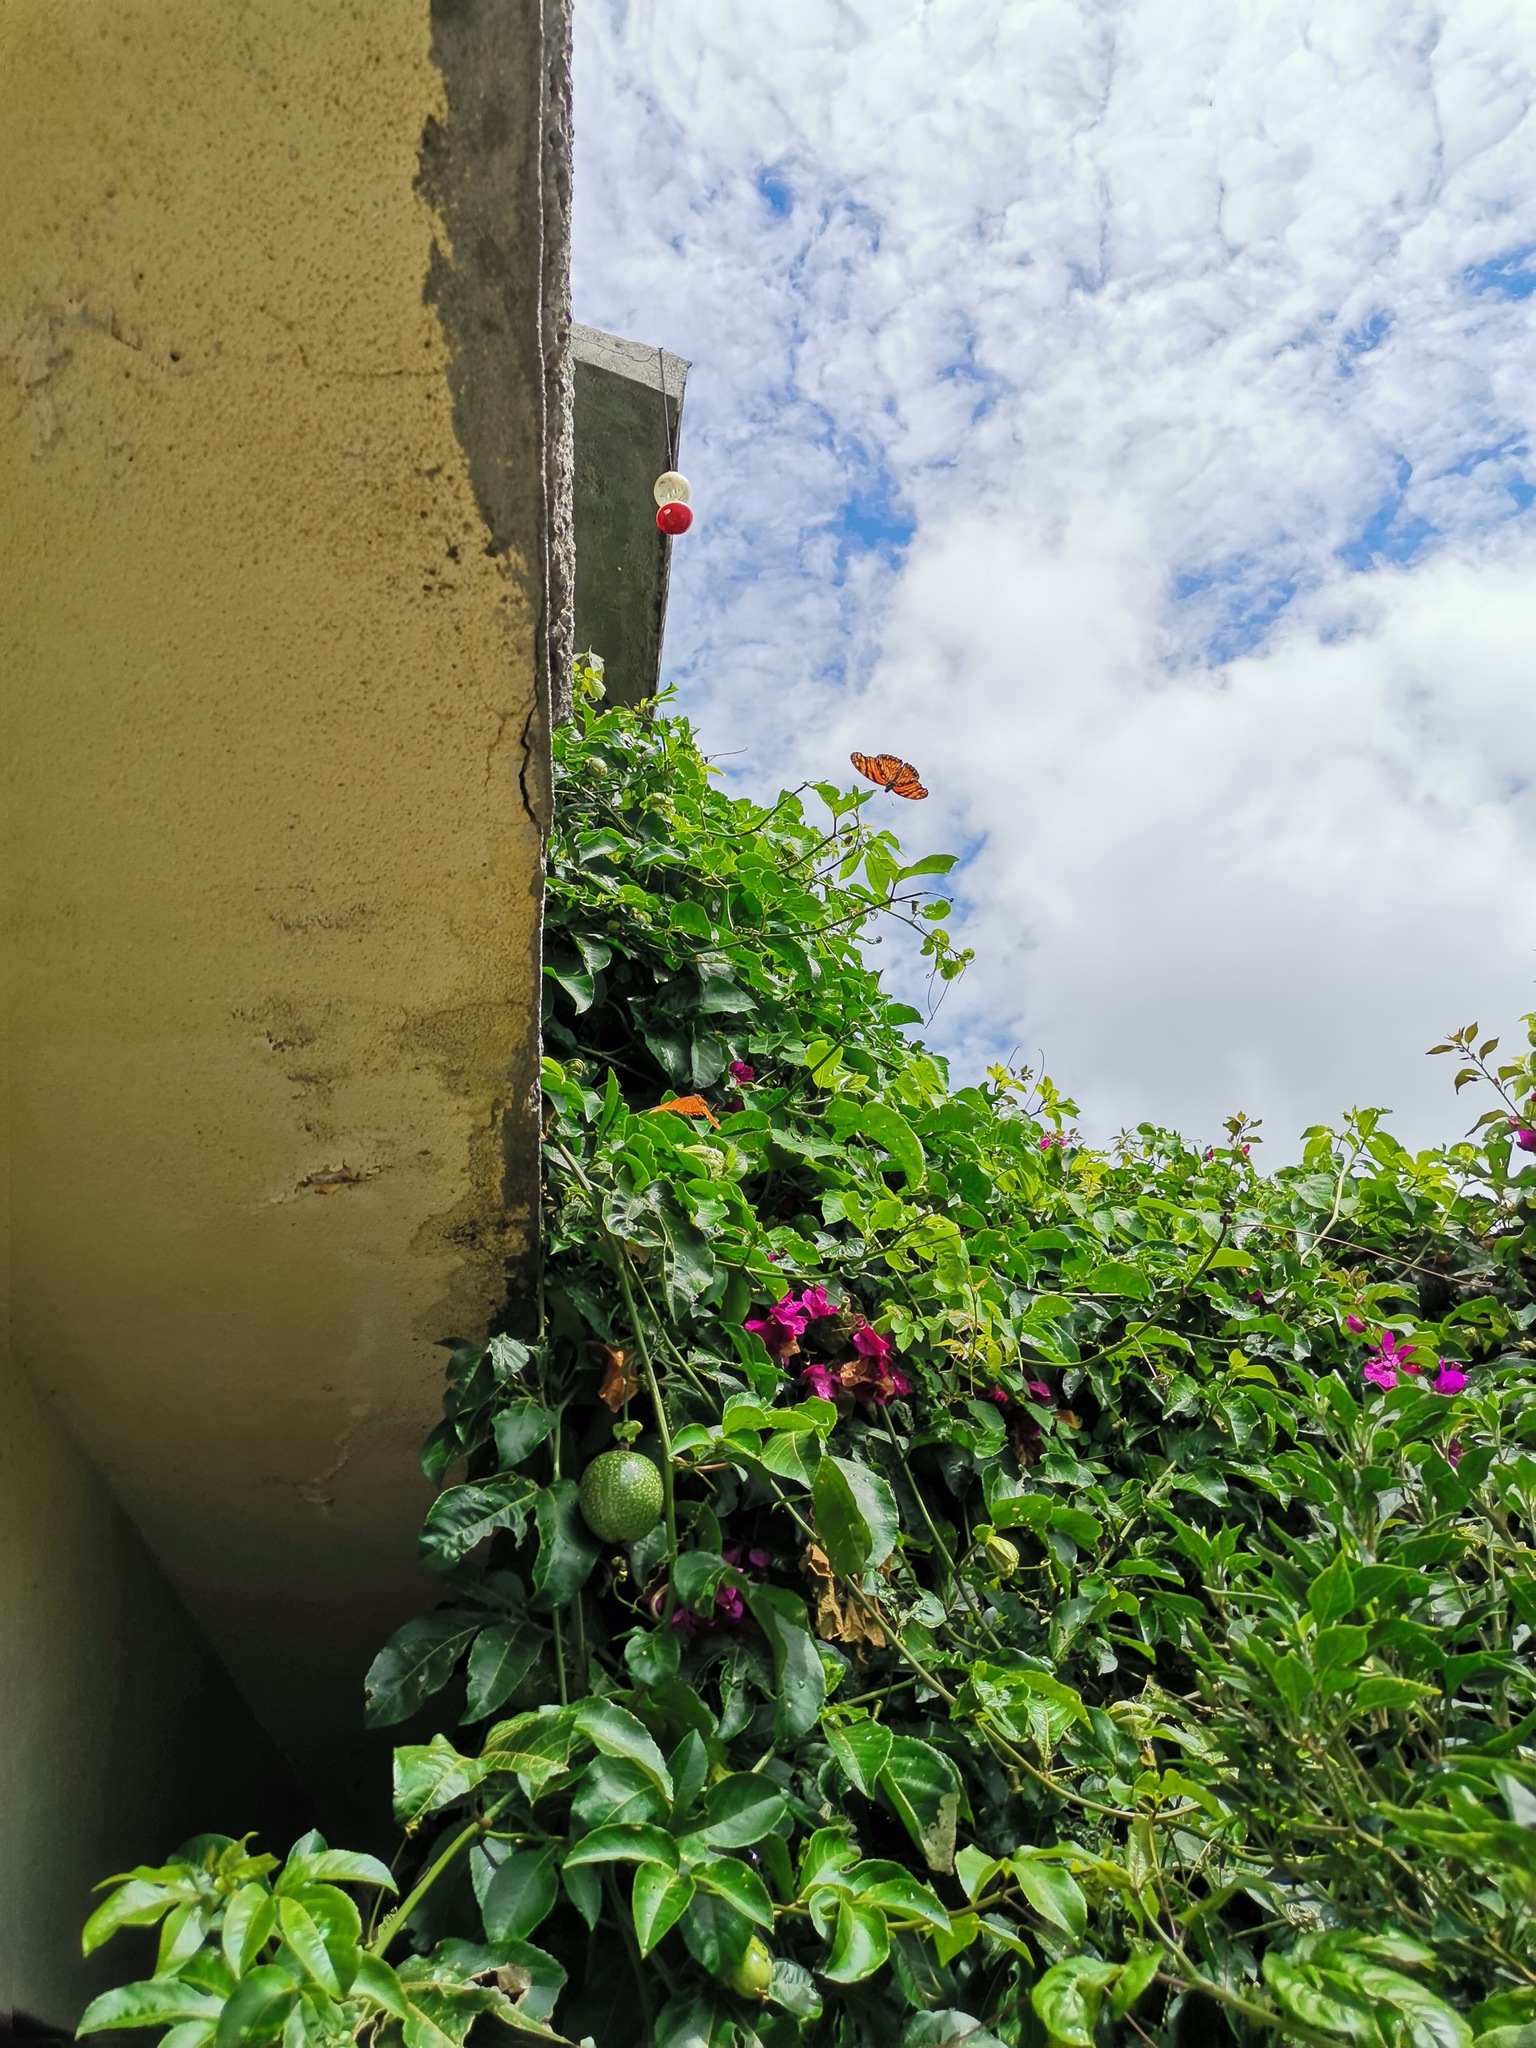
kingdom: Animalia
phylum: Arthropoda
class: Insecta
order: Lepidoptera
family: Nymphalidae
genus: Dione
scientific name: Dione juno
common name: Juno silverspot
